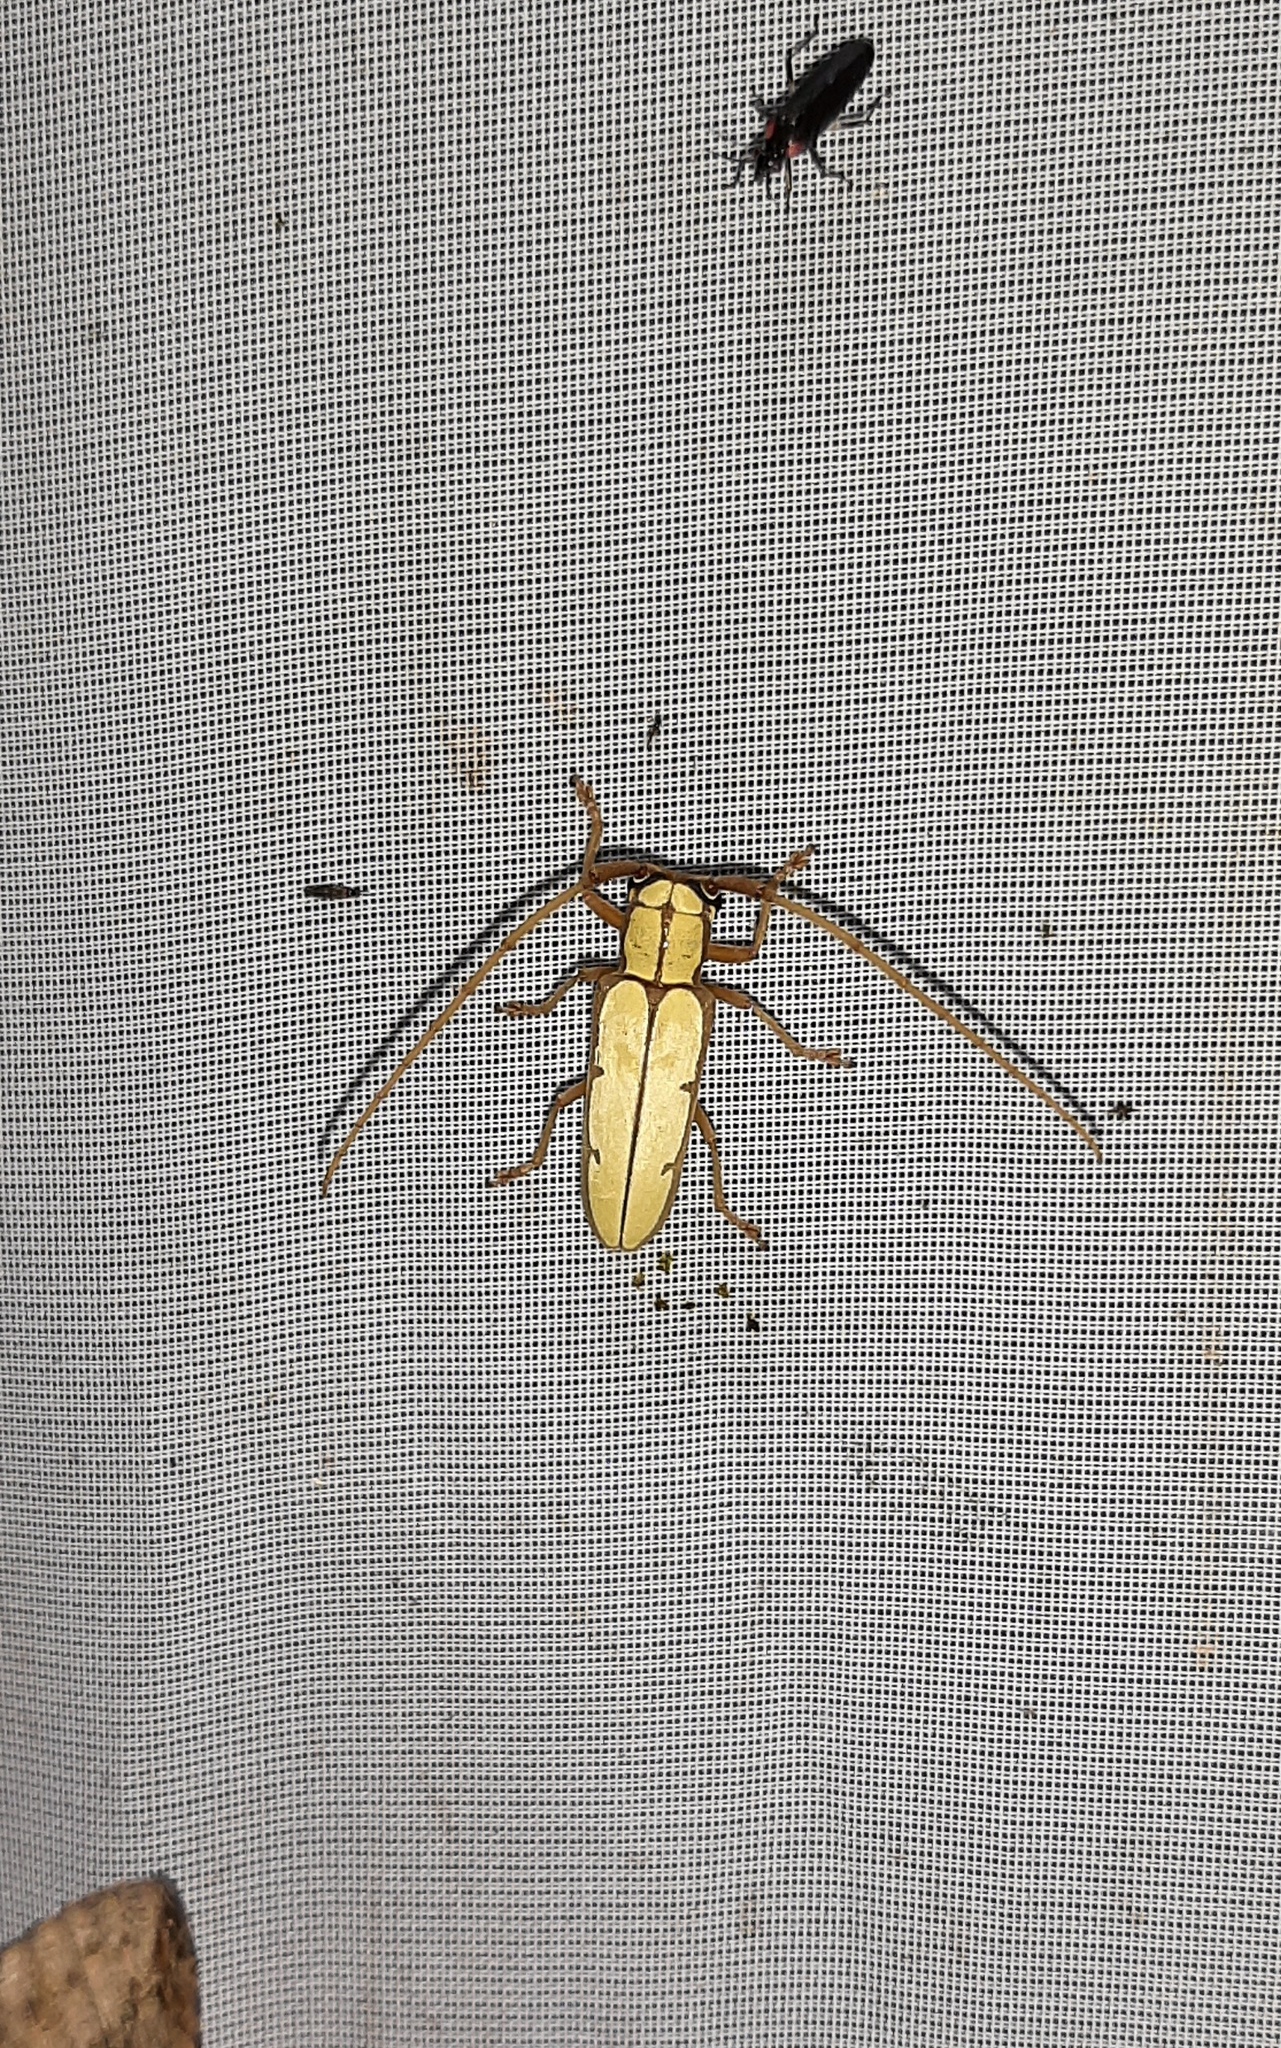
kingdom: Animalia
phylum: Arthropoda
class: Insecta
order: Coleoptera
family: Cerambycidae
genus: Phoebemima
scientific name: Phoebemima theaphia
